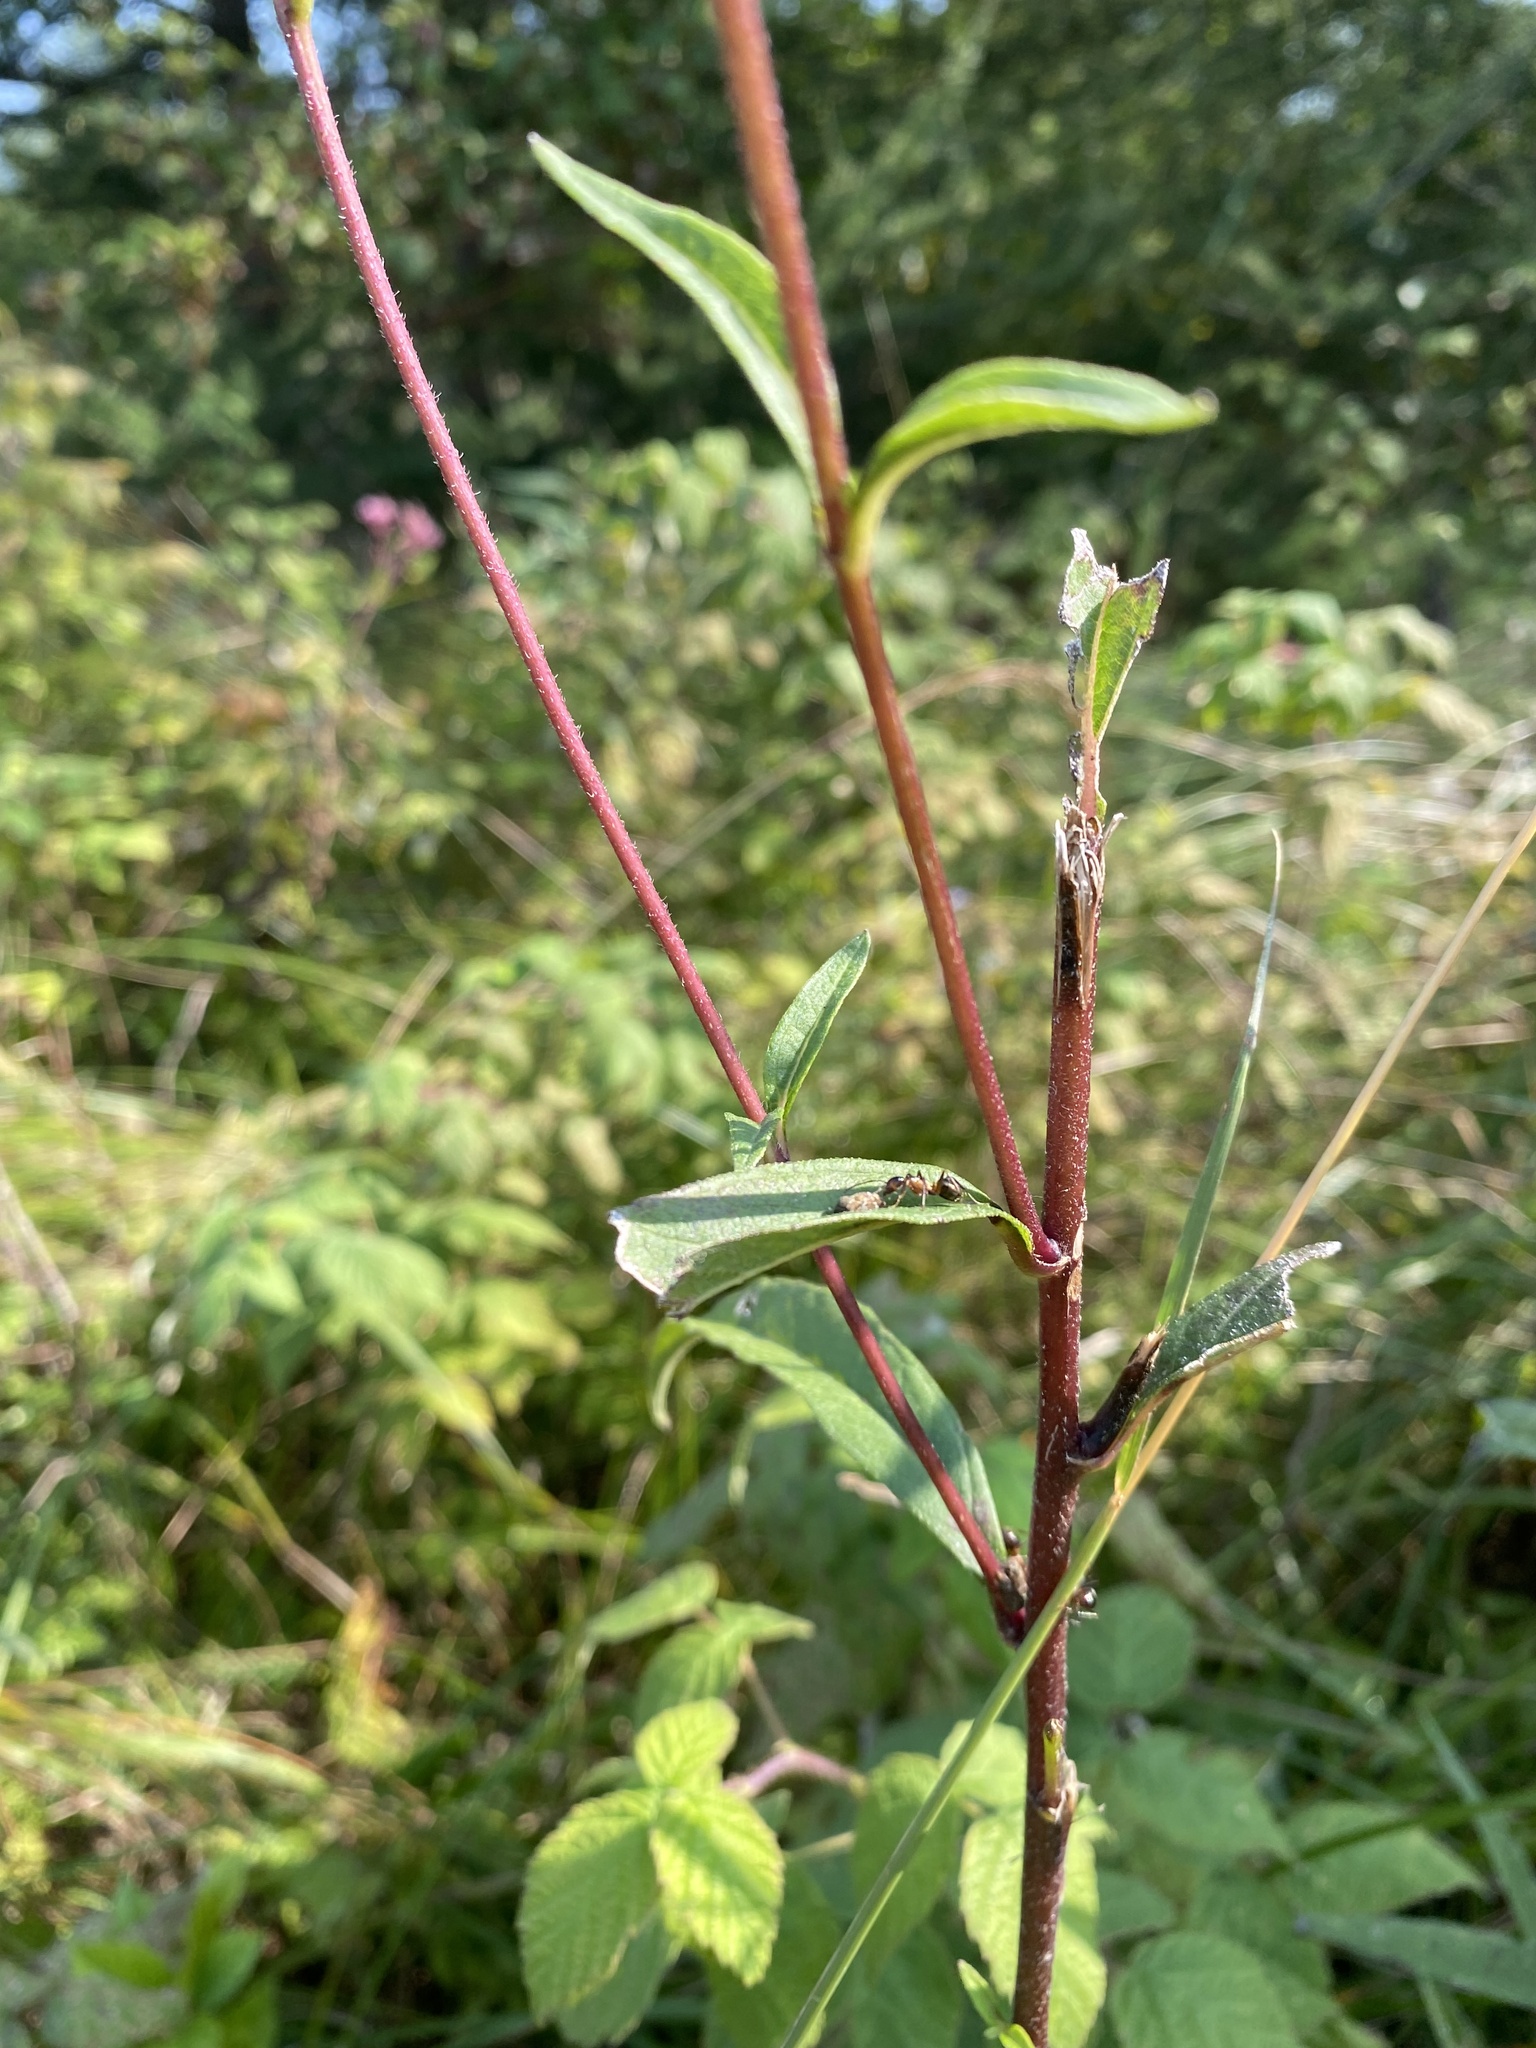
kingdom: Plantae
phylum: Tracheophyta
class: Magnoliopsida
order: Asterales
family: Asteraceae
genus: Helianthus
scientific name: Helianthus decapetalus
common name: Thin-leaved sunflower
